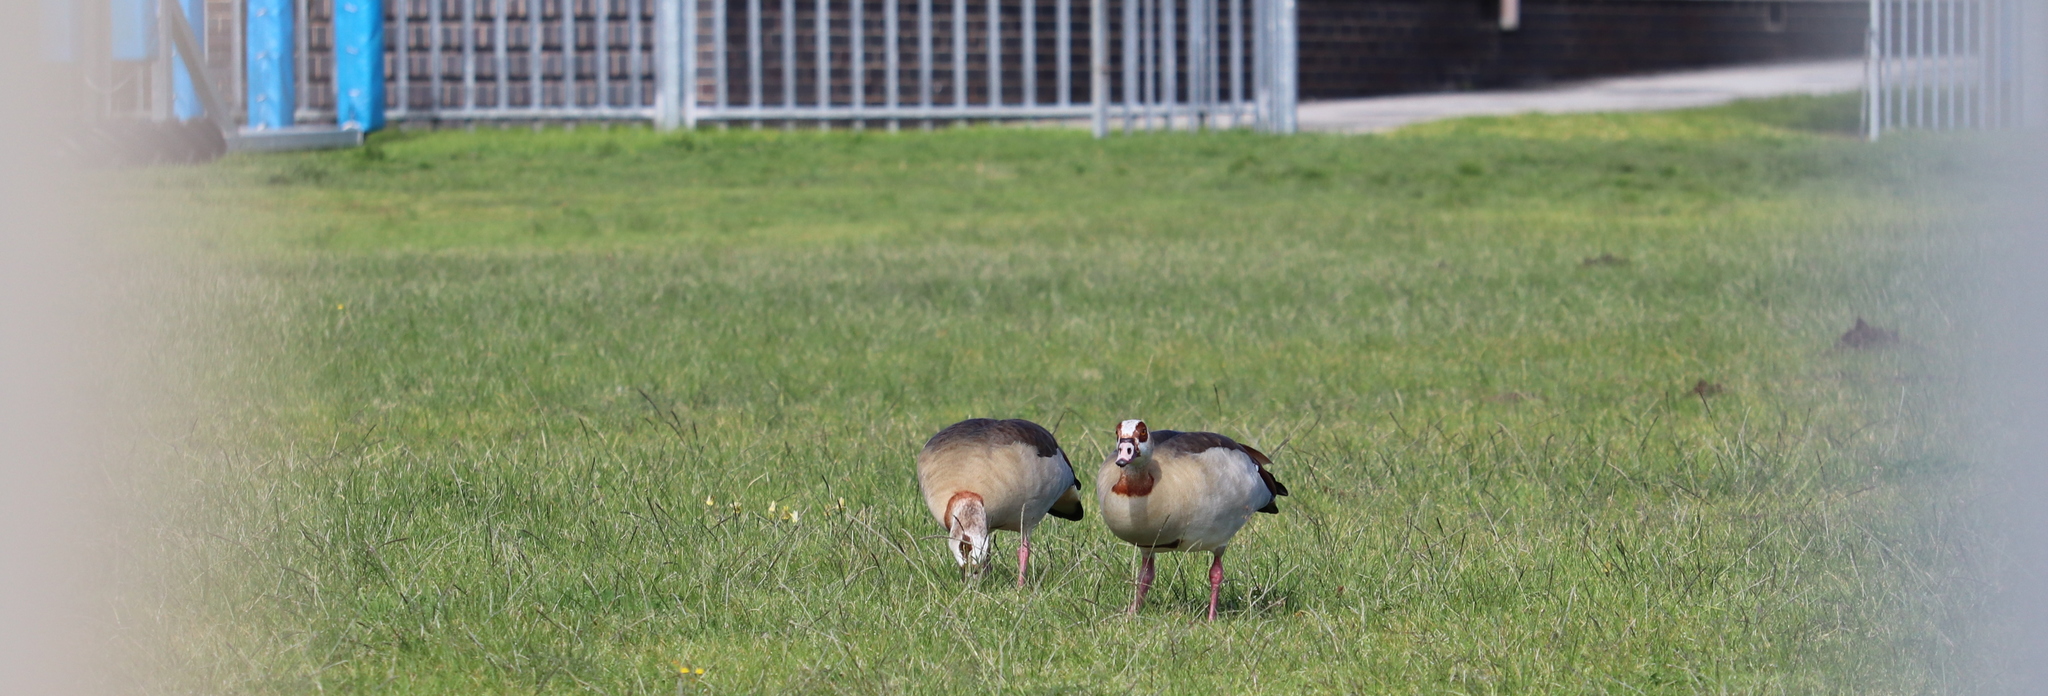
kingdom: Animalia
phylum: Chordata
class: Aves
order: Anseriformes
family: Anatidae
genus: Alopochen
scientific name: Alopochen aegyptiaca
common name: Egyptian goose
